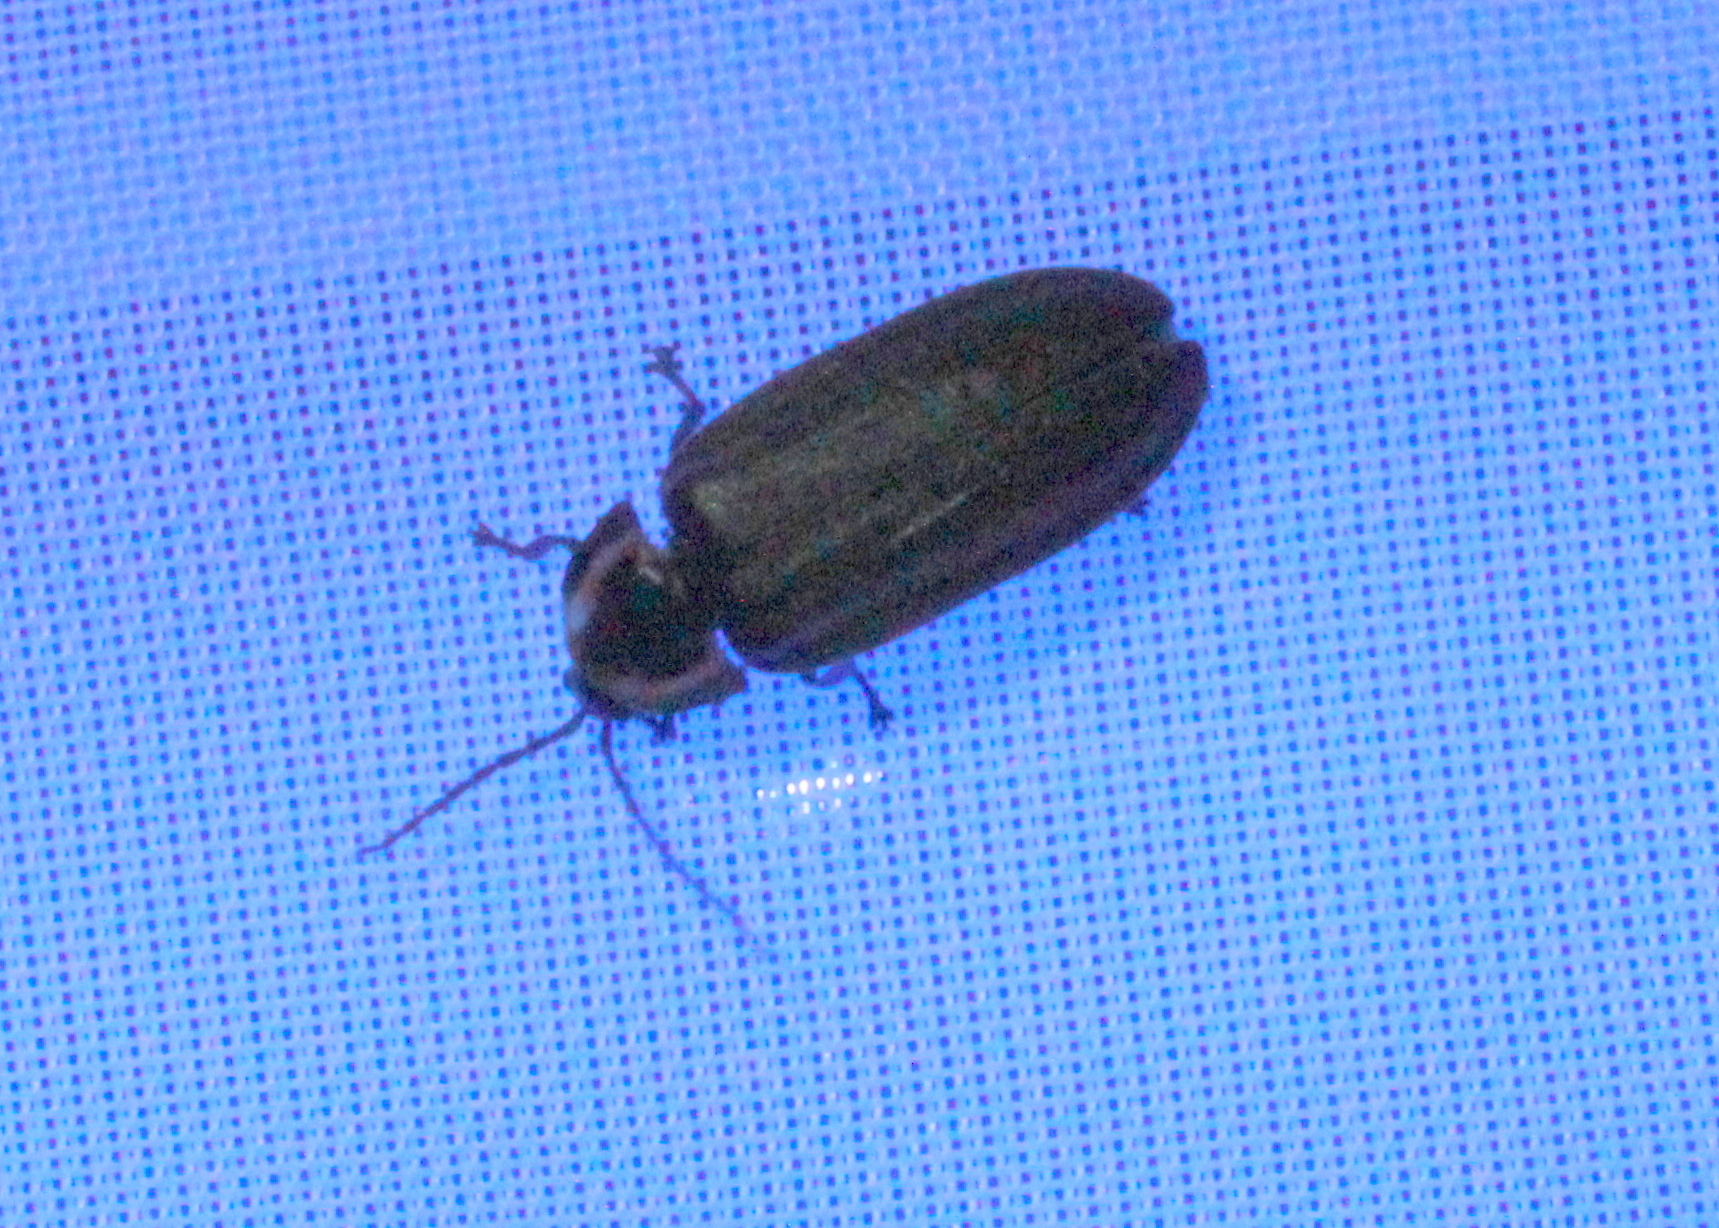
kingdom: Animalia
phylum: Arthropoda
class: Insecta
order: Coleoptera
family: Lampyridae
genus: Photinus
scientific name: Photinus corrusca
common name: Winter firefly
